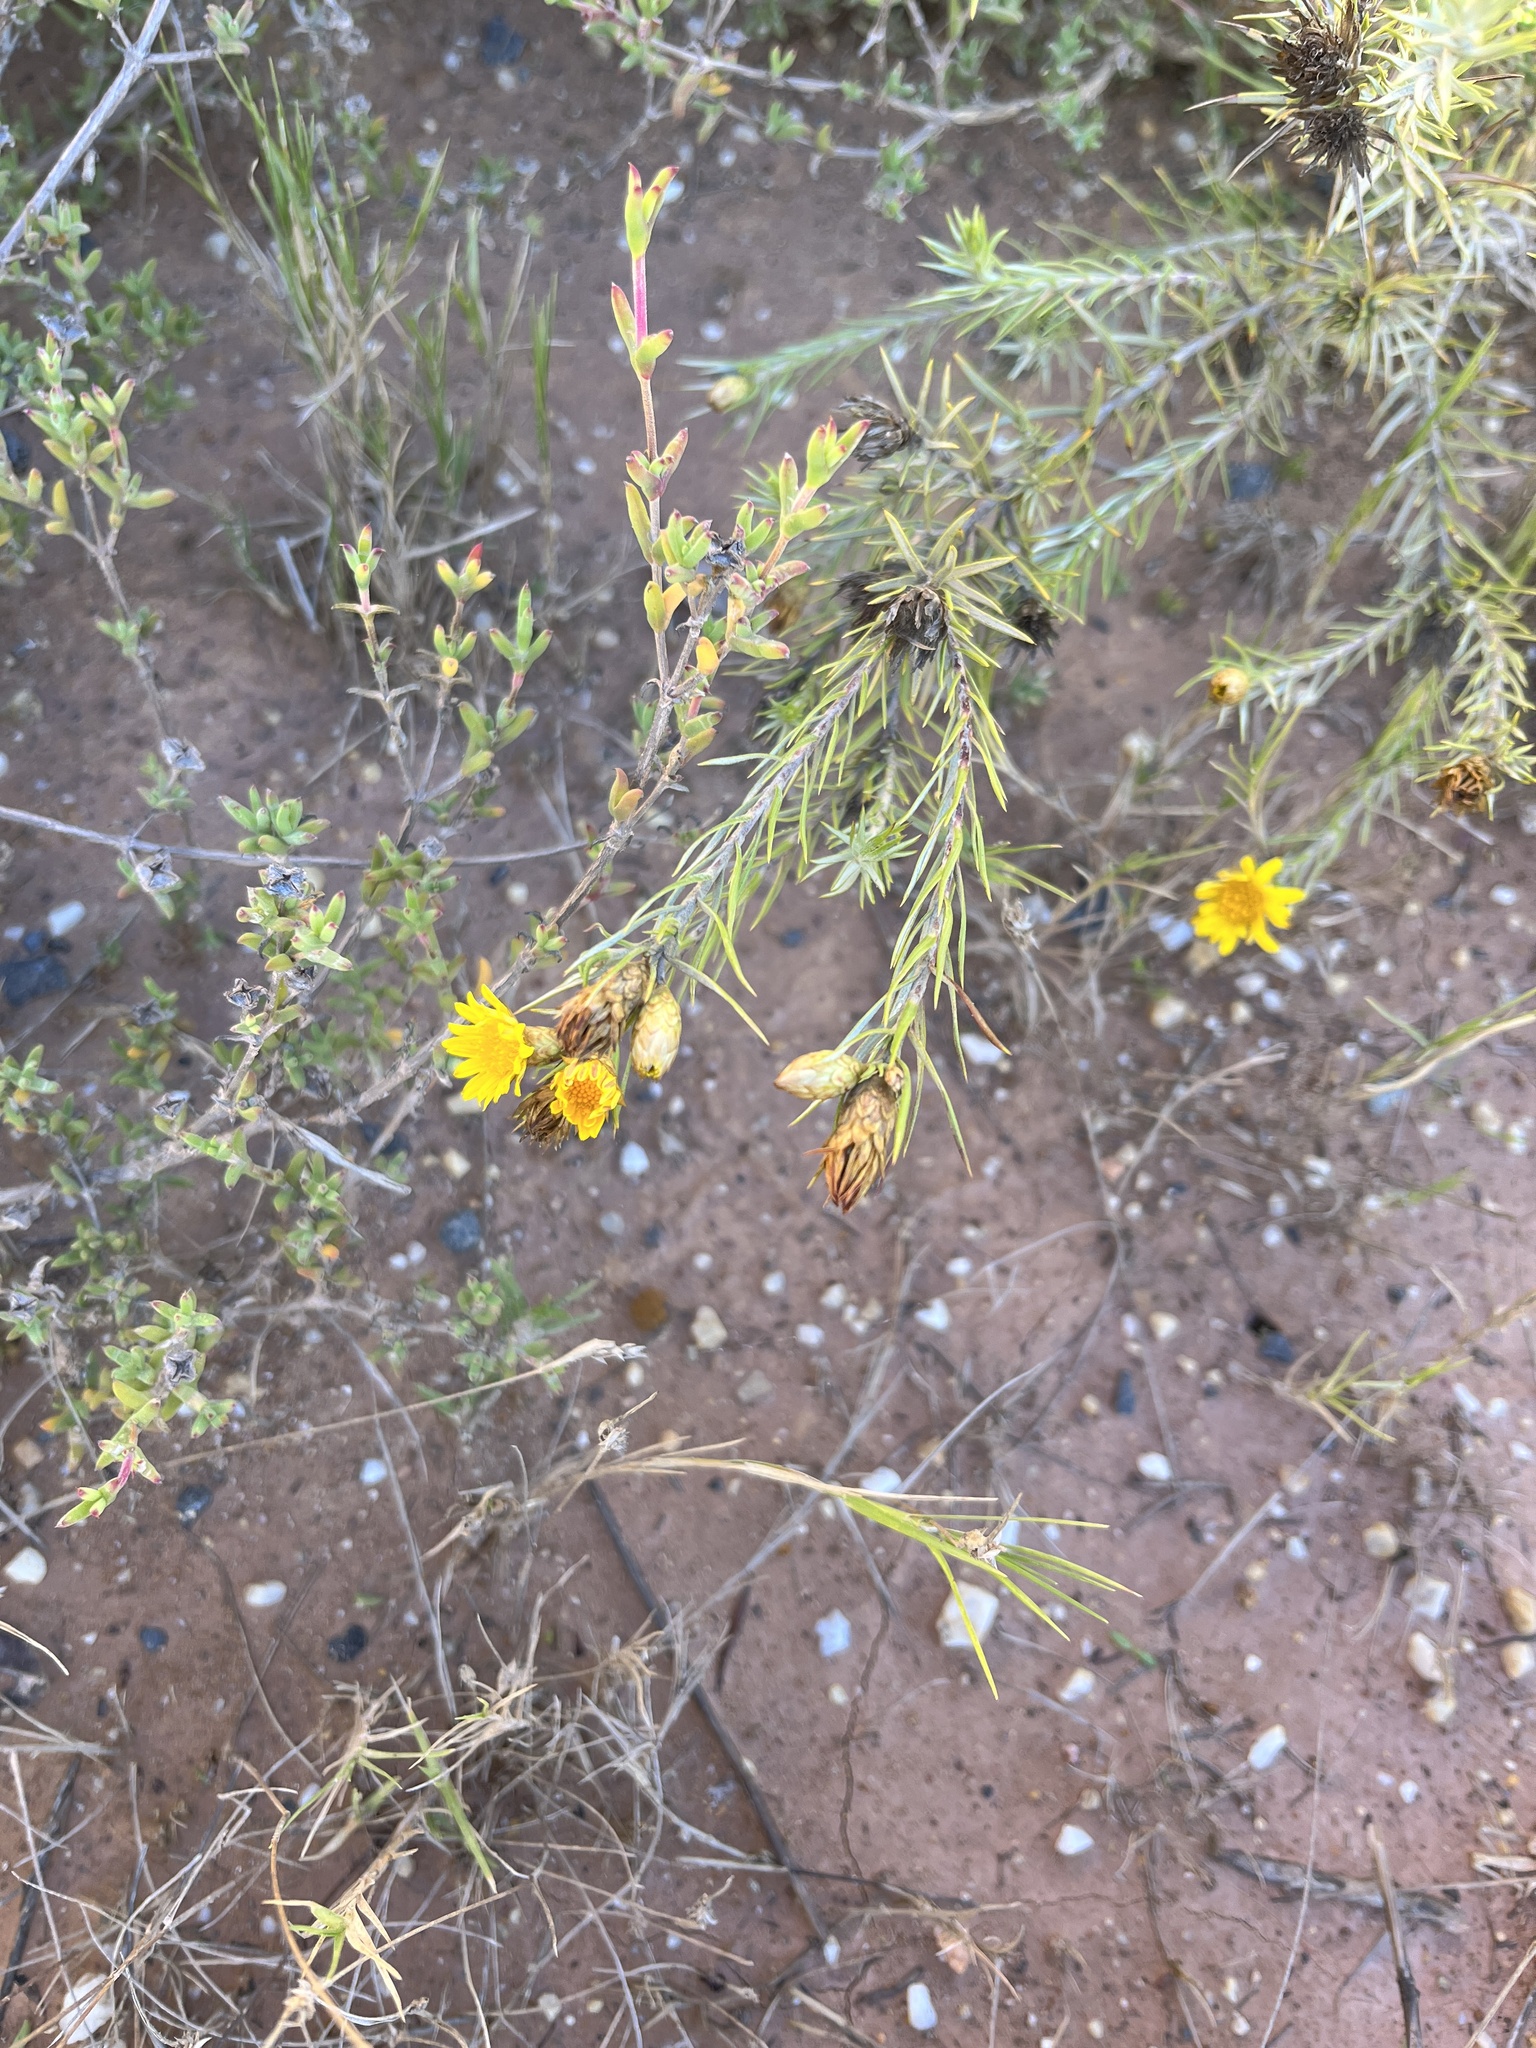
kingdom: Plantae
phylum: Tracheophyta
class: Magnoliopsida
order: Asterales
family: Asteraceae
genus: Oedera
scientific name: Oedera pungens
